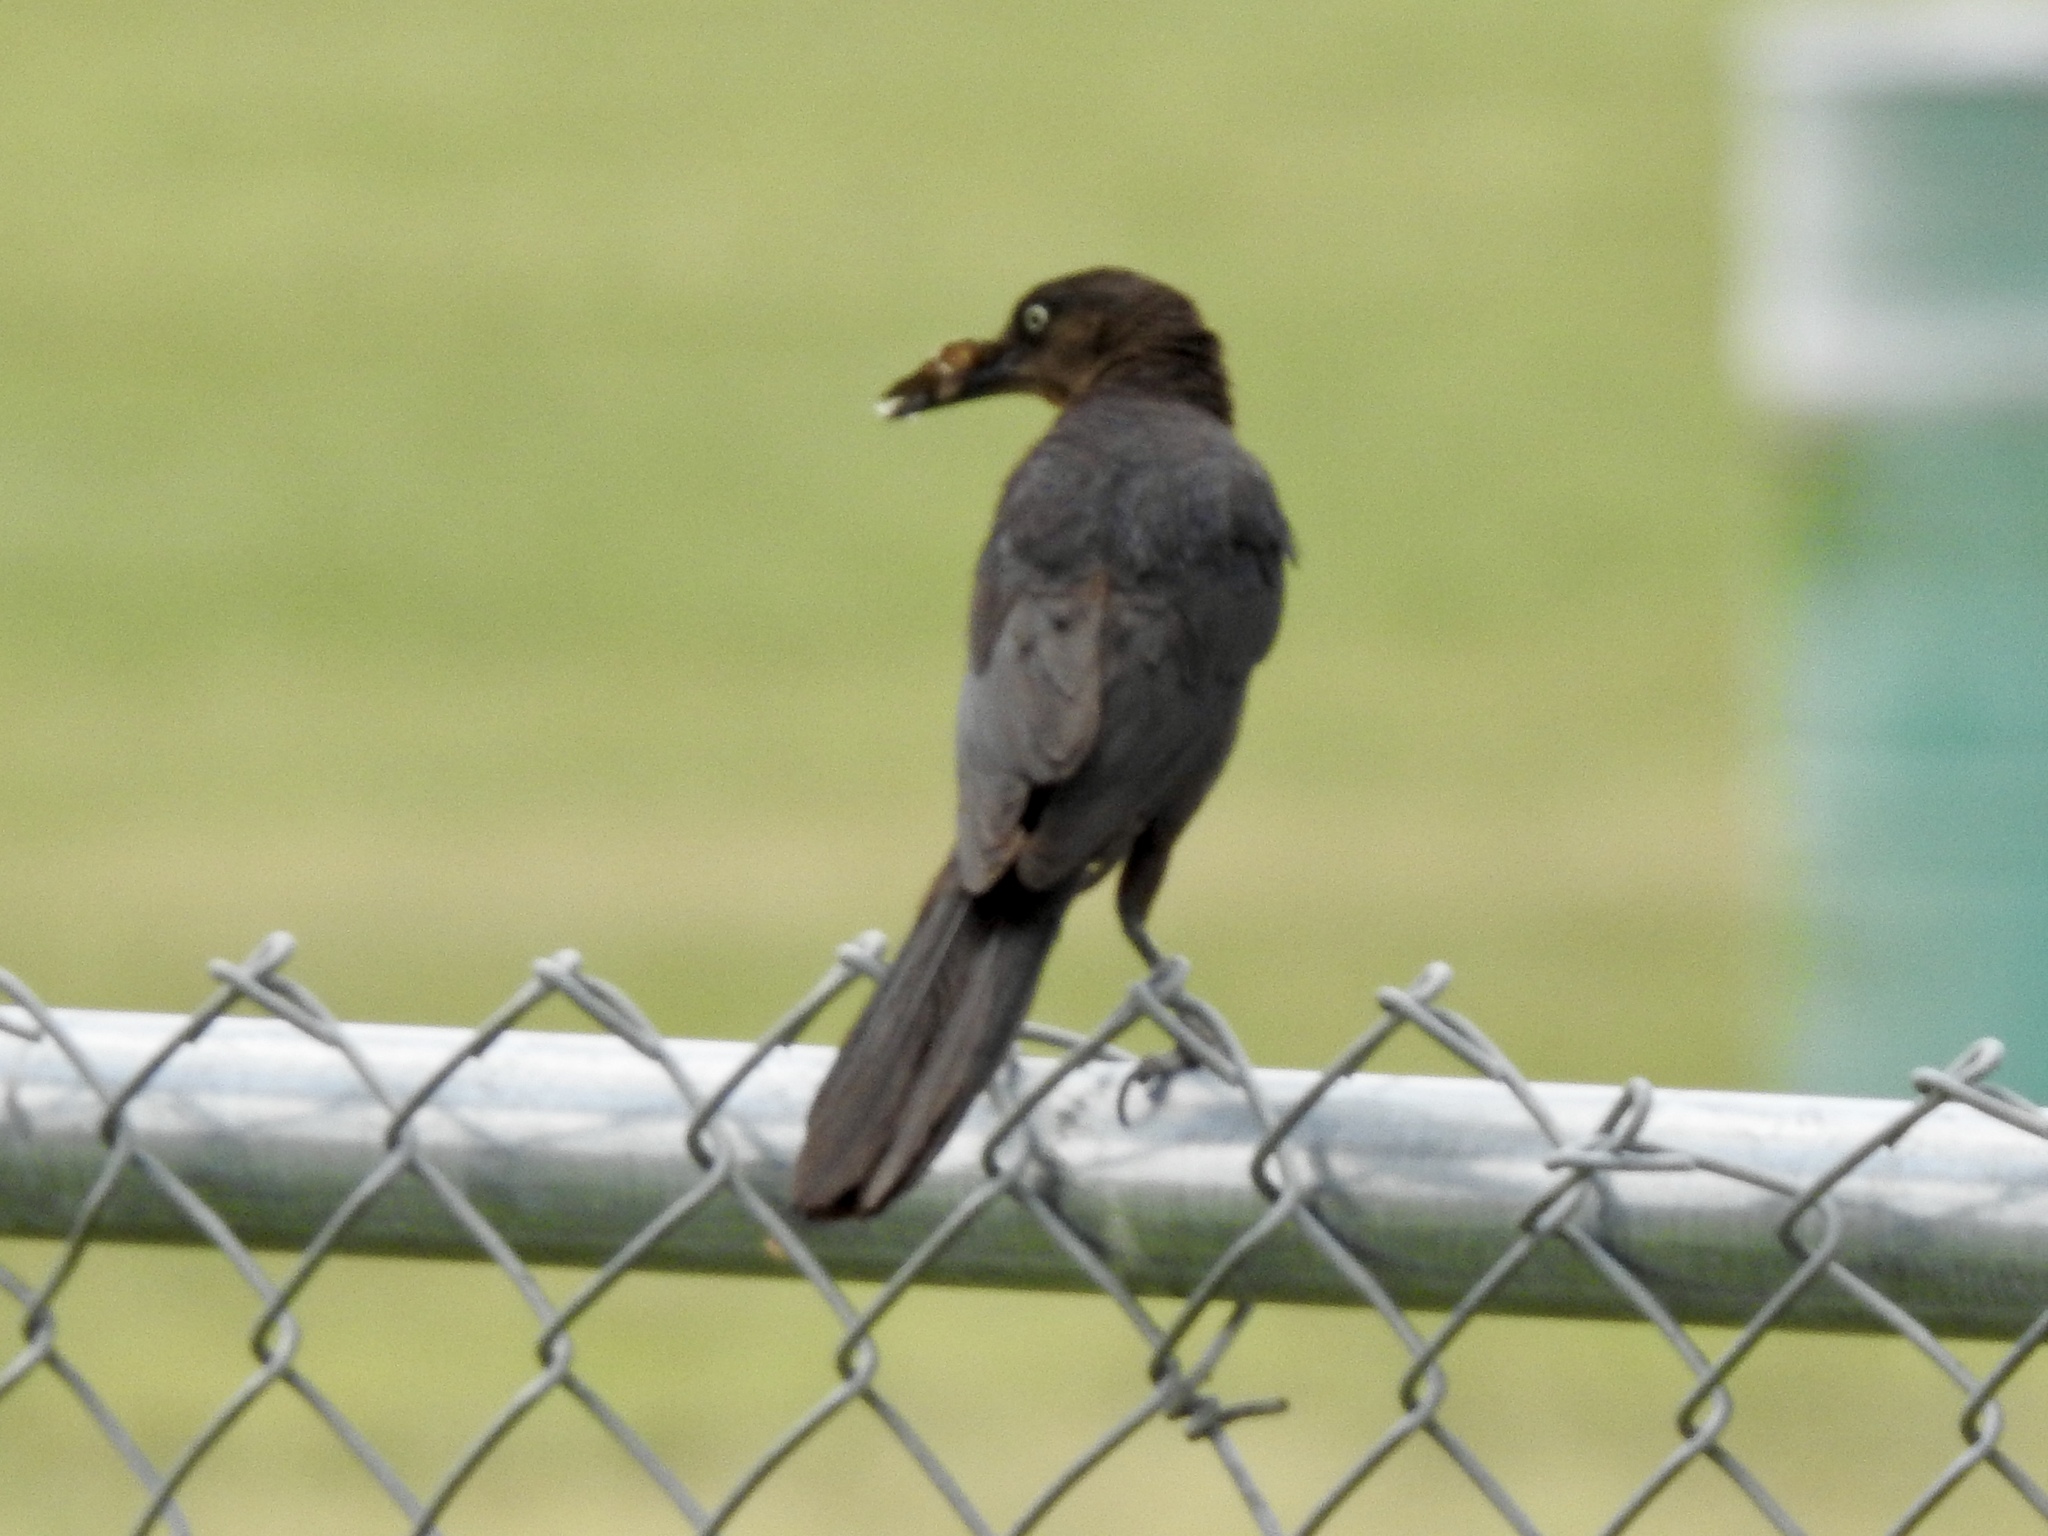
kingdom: Animalia
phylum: Chordata
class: Aves
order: Passeriformes
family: Icteridae
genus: Quiscalus
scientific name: Quiscalus mexicanus
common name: Great-tailed grackle
